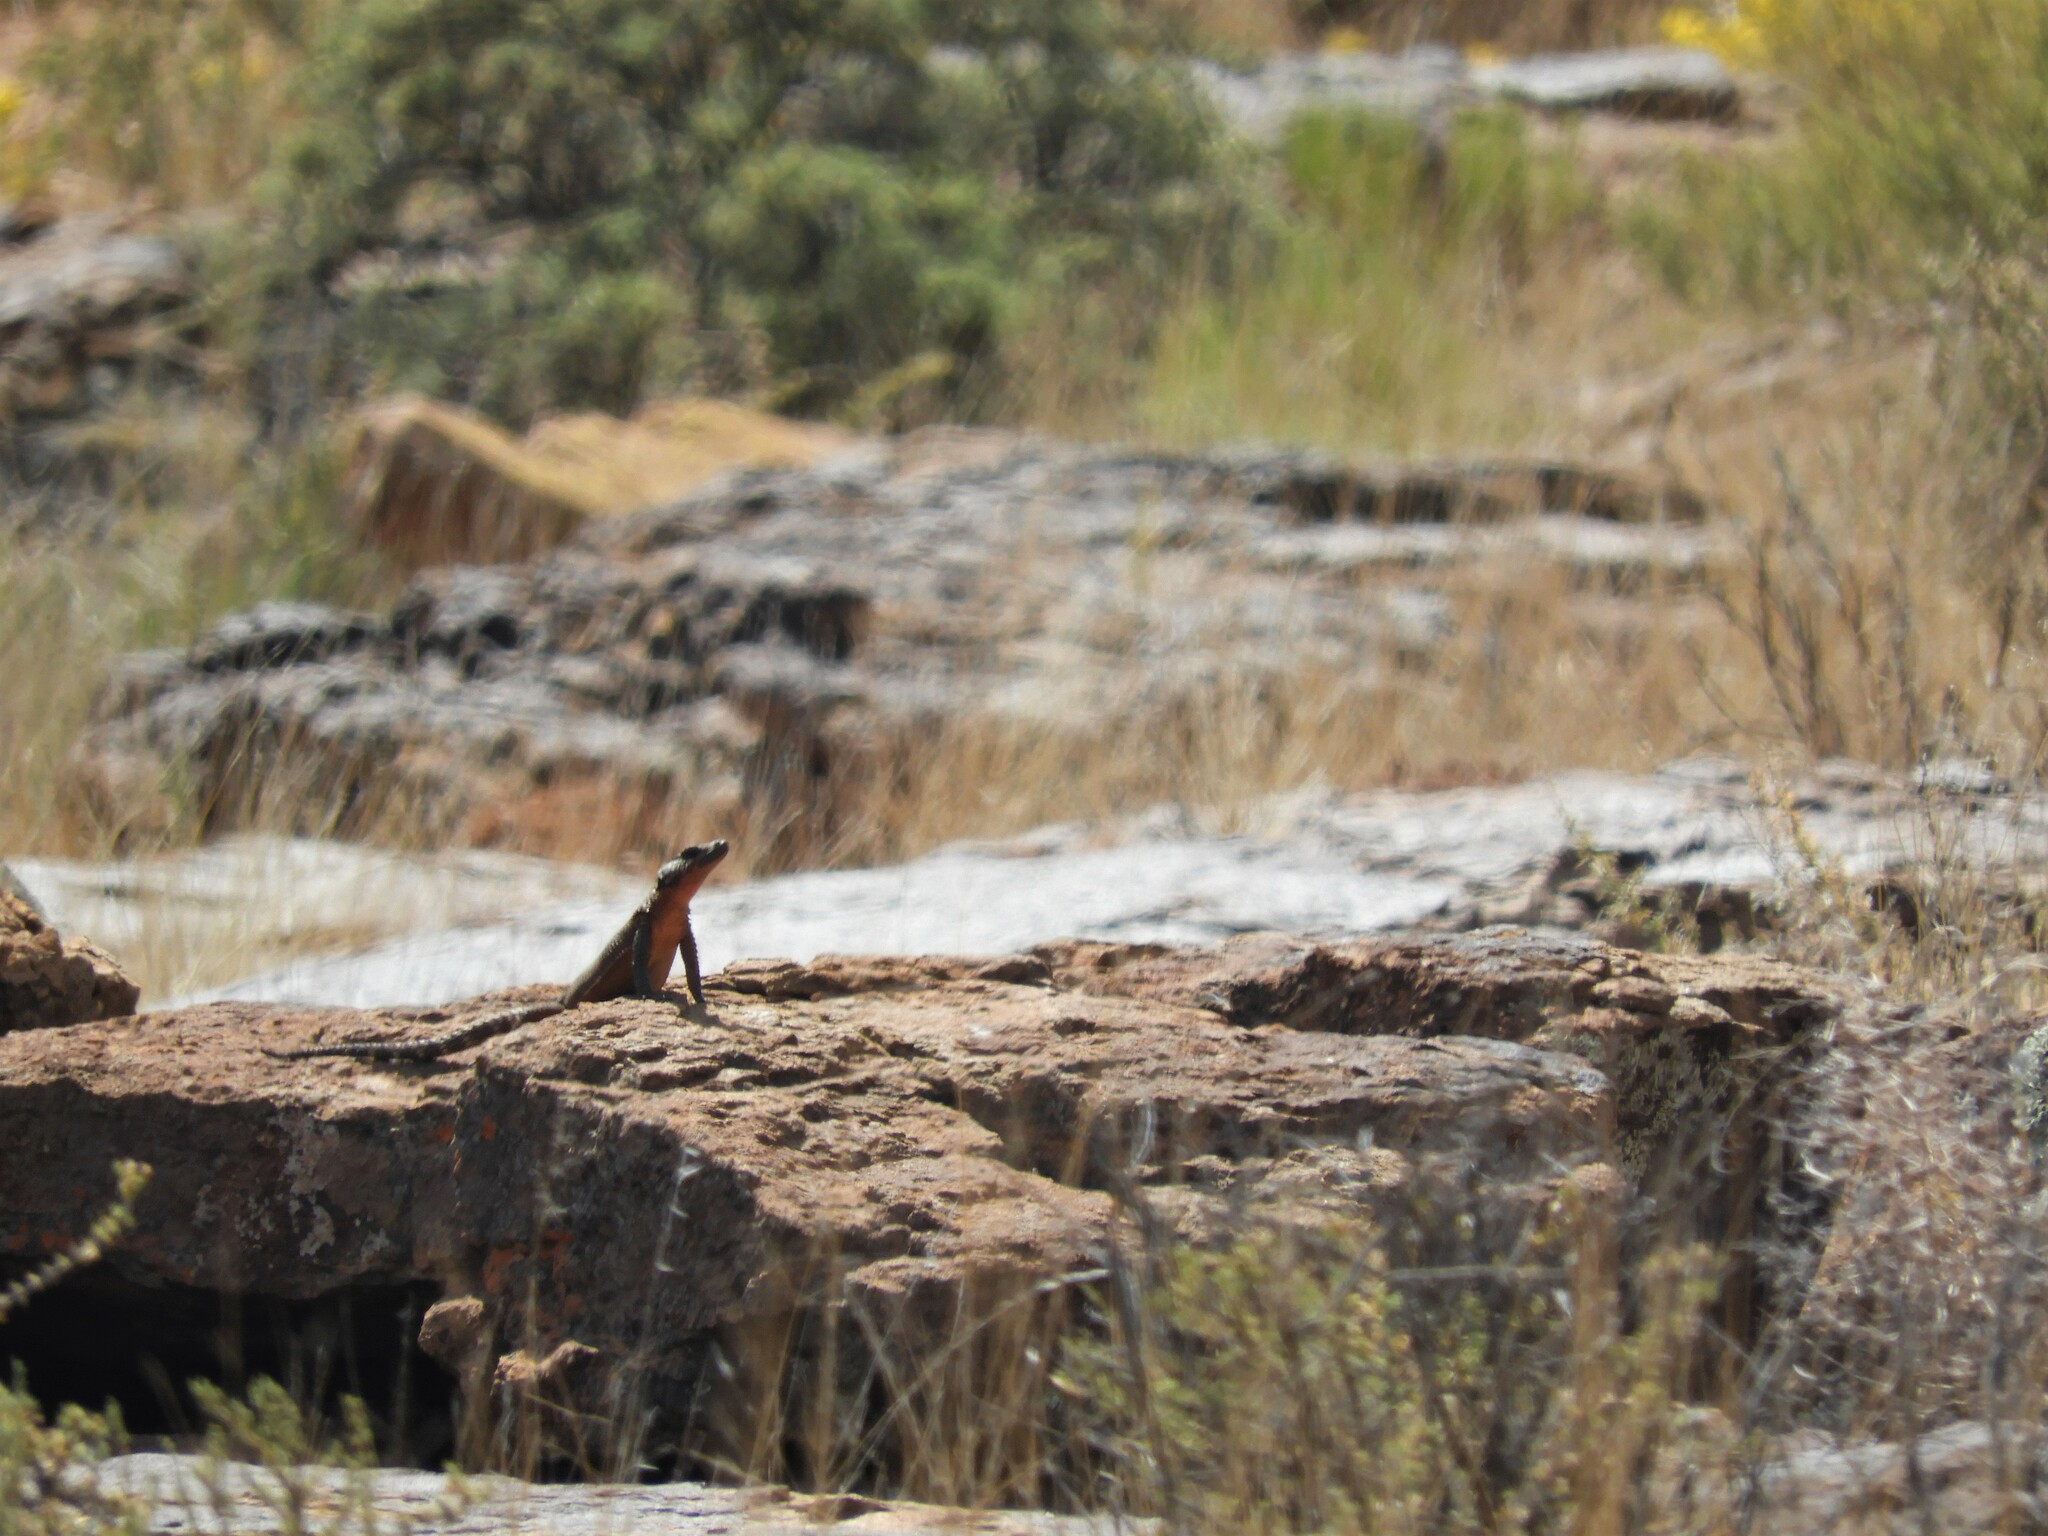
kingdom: Animalia
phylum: Chordata
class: Squamata
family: Cordylidae
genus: Karusasaurus
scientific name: Karusasaurus polyzonus
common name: Karoo girdled lizard
